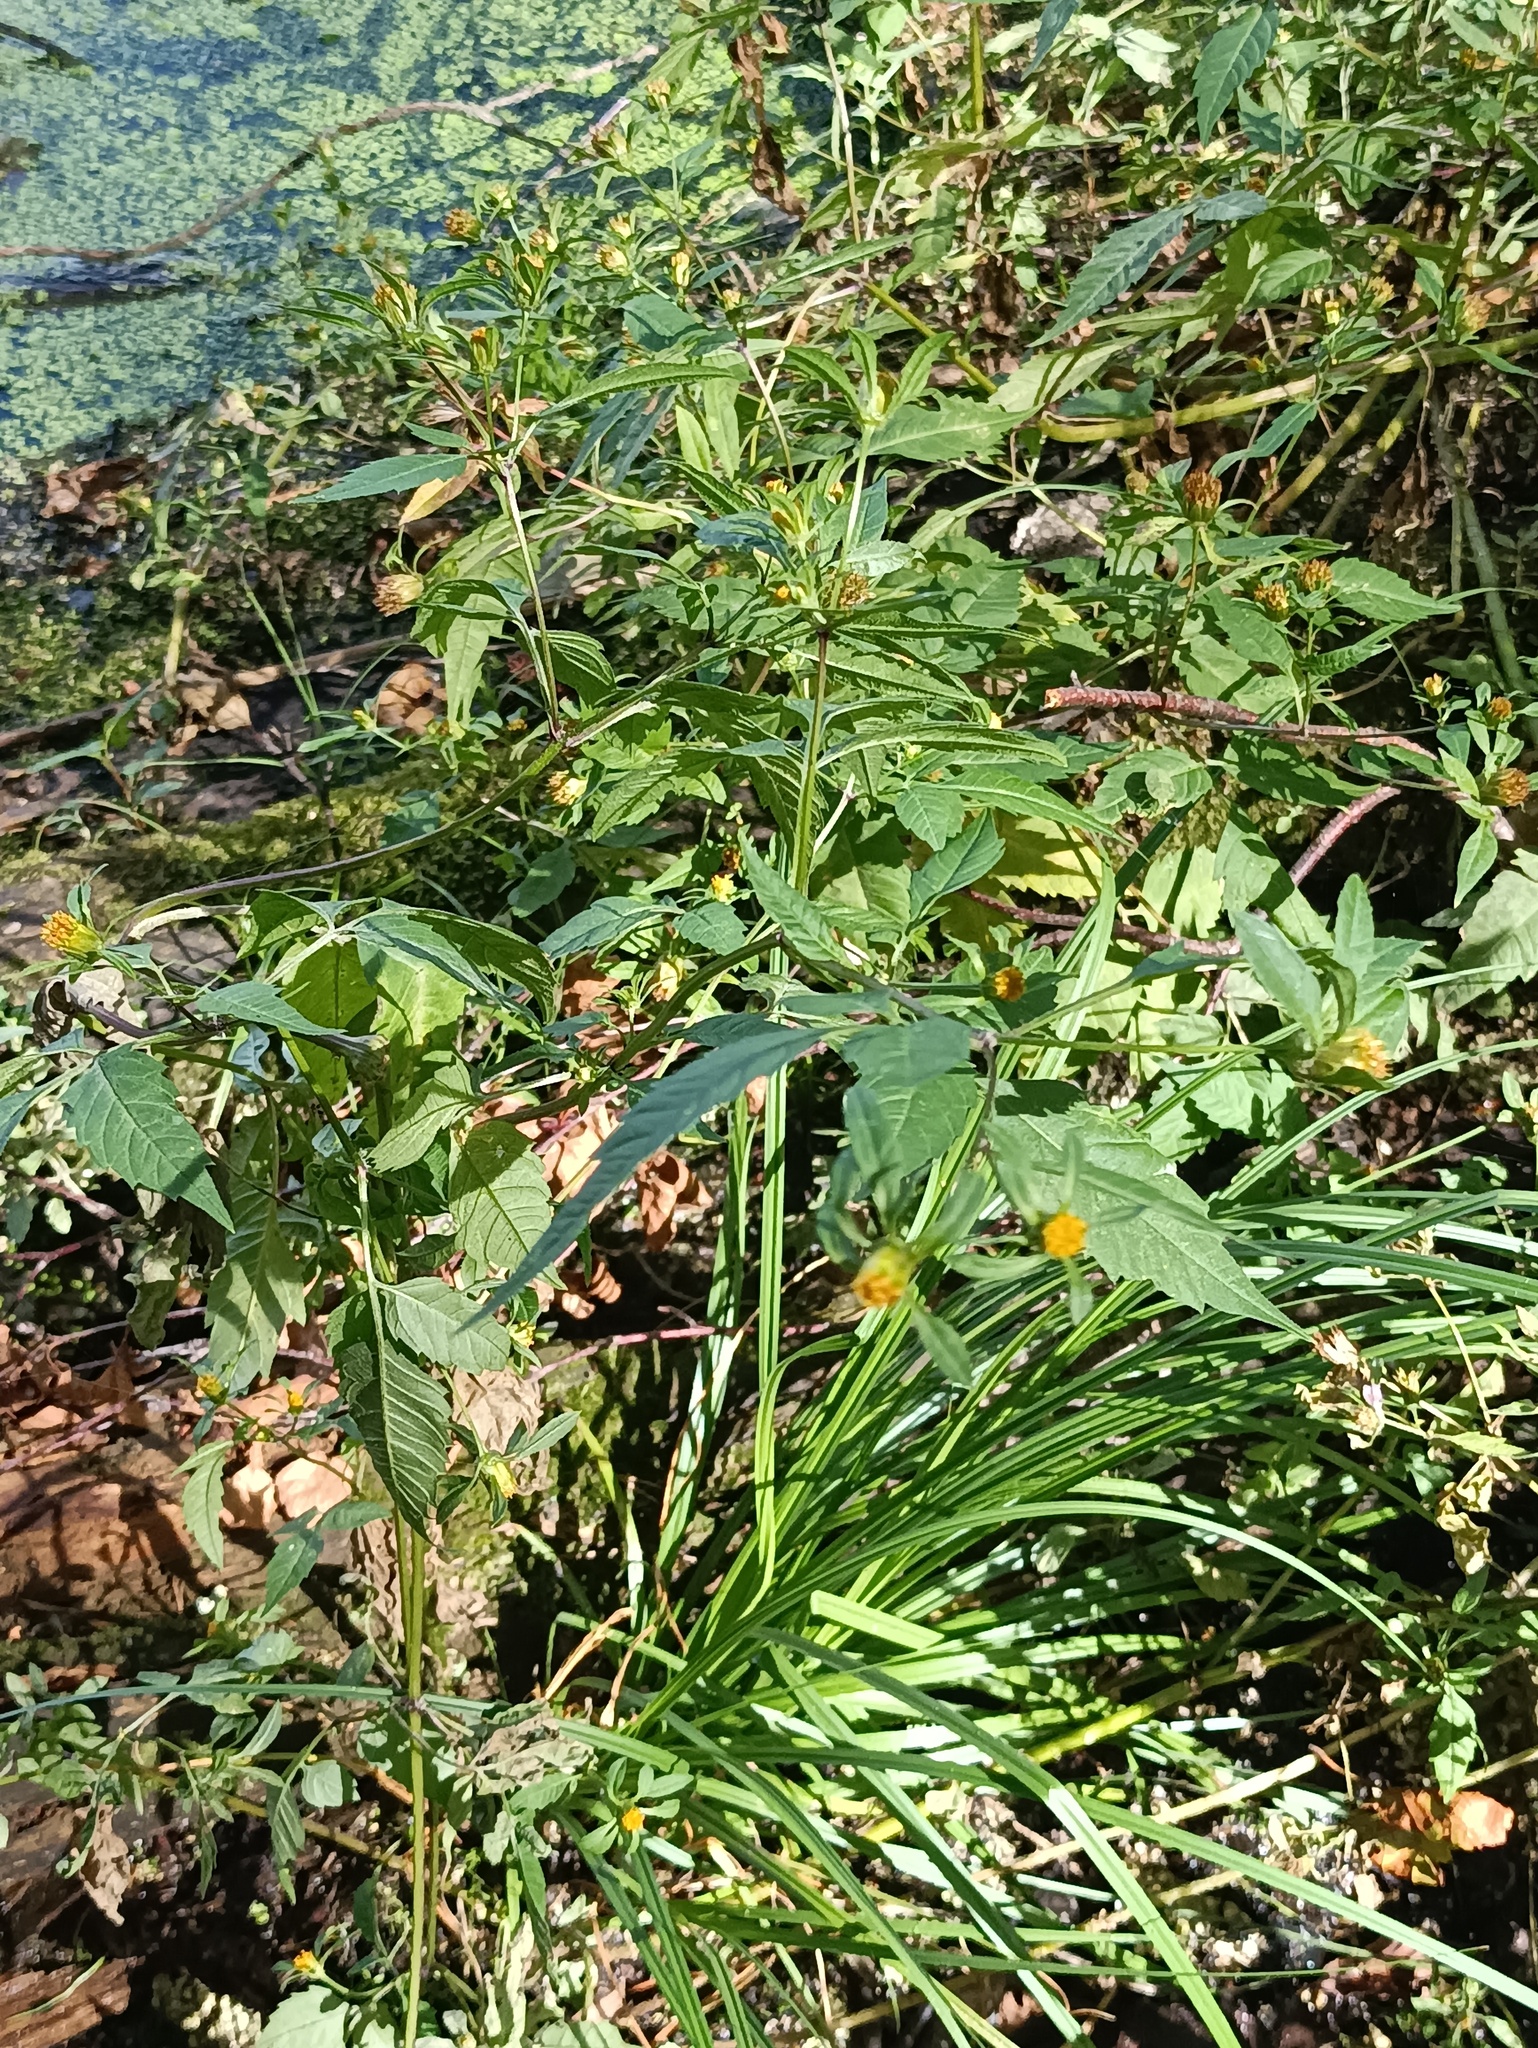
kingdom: Plantae
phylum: Tracheophyta
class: Magnoliopsida
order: Asterales
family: Asteraceae
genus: Bidens
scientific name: Bidens frondosa
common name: Beggarticks
